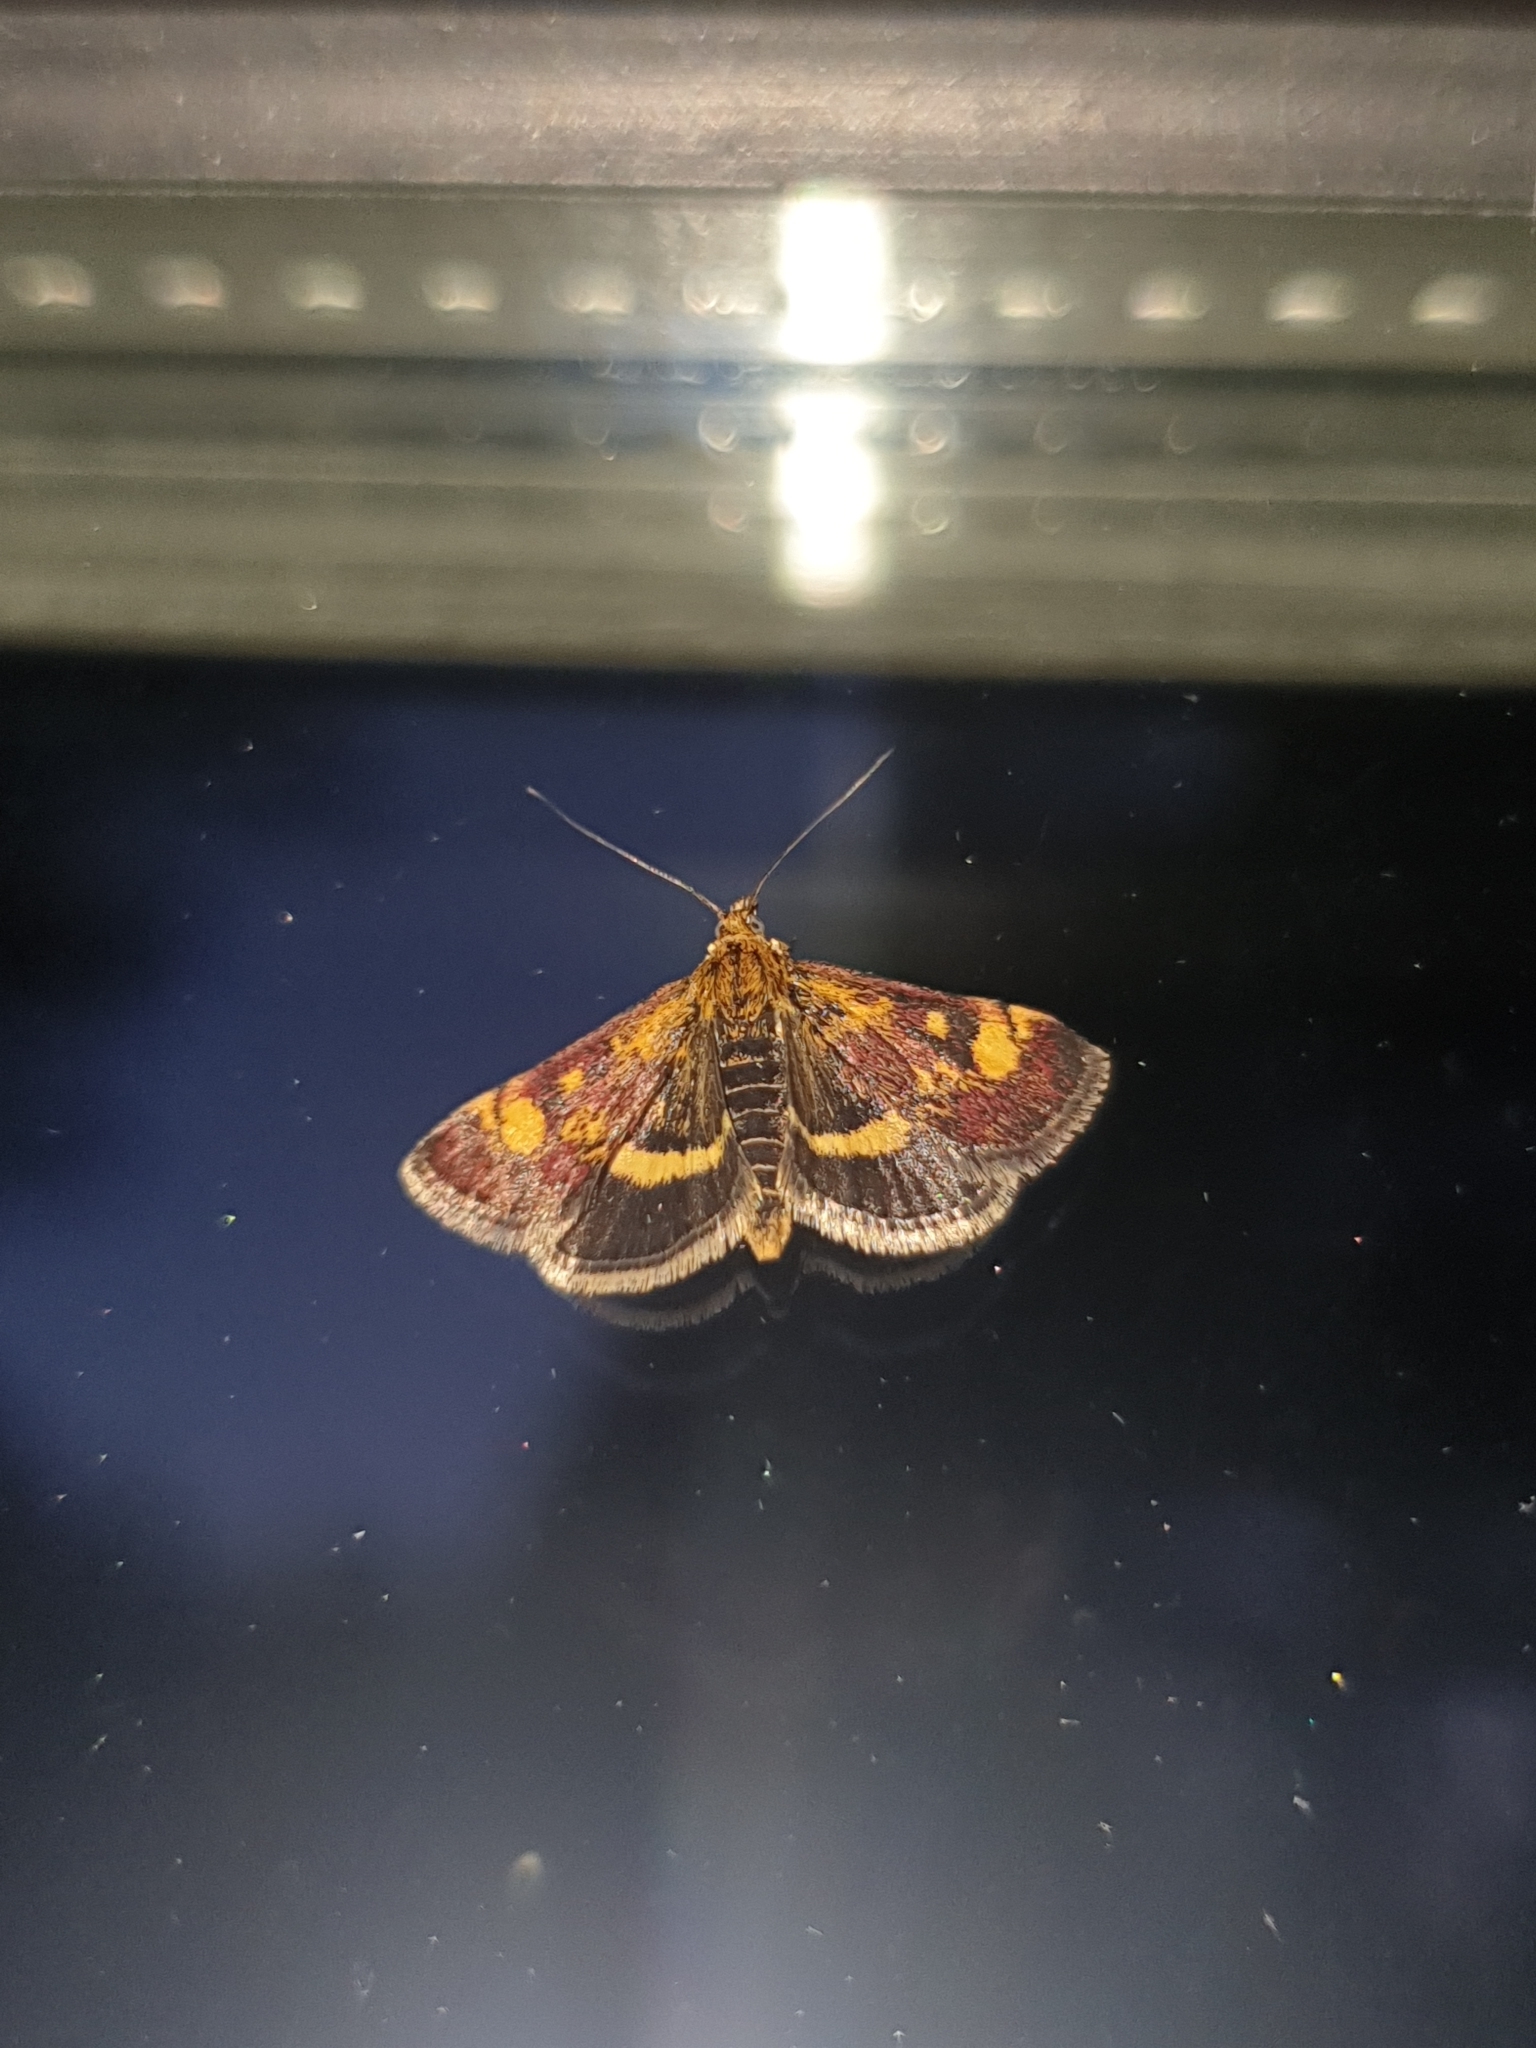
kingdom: Animalia
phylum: Arthropoda
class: Insecta
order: Lepidoptera
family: Crambidae
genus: Pyrausta
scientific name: Pyrausta aurata
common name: Small purple & gold
